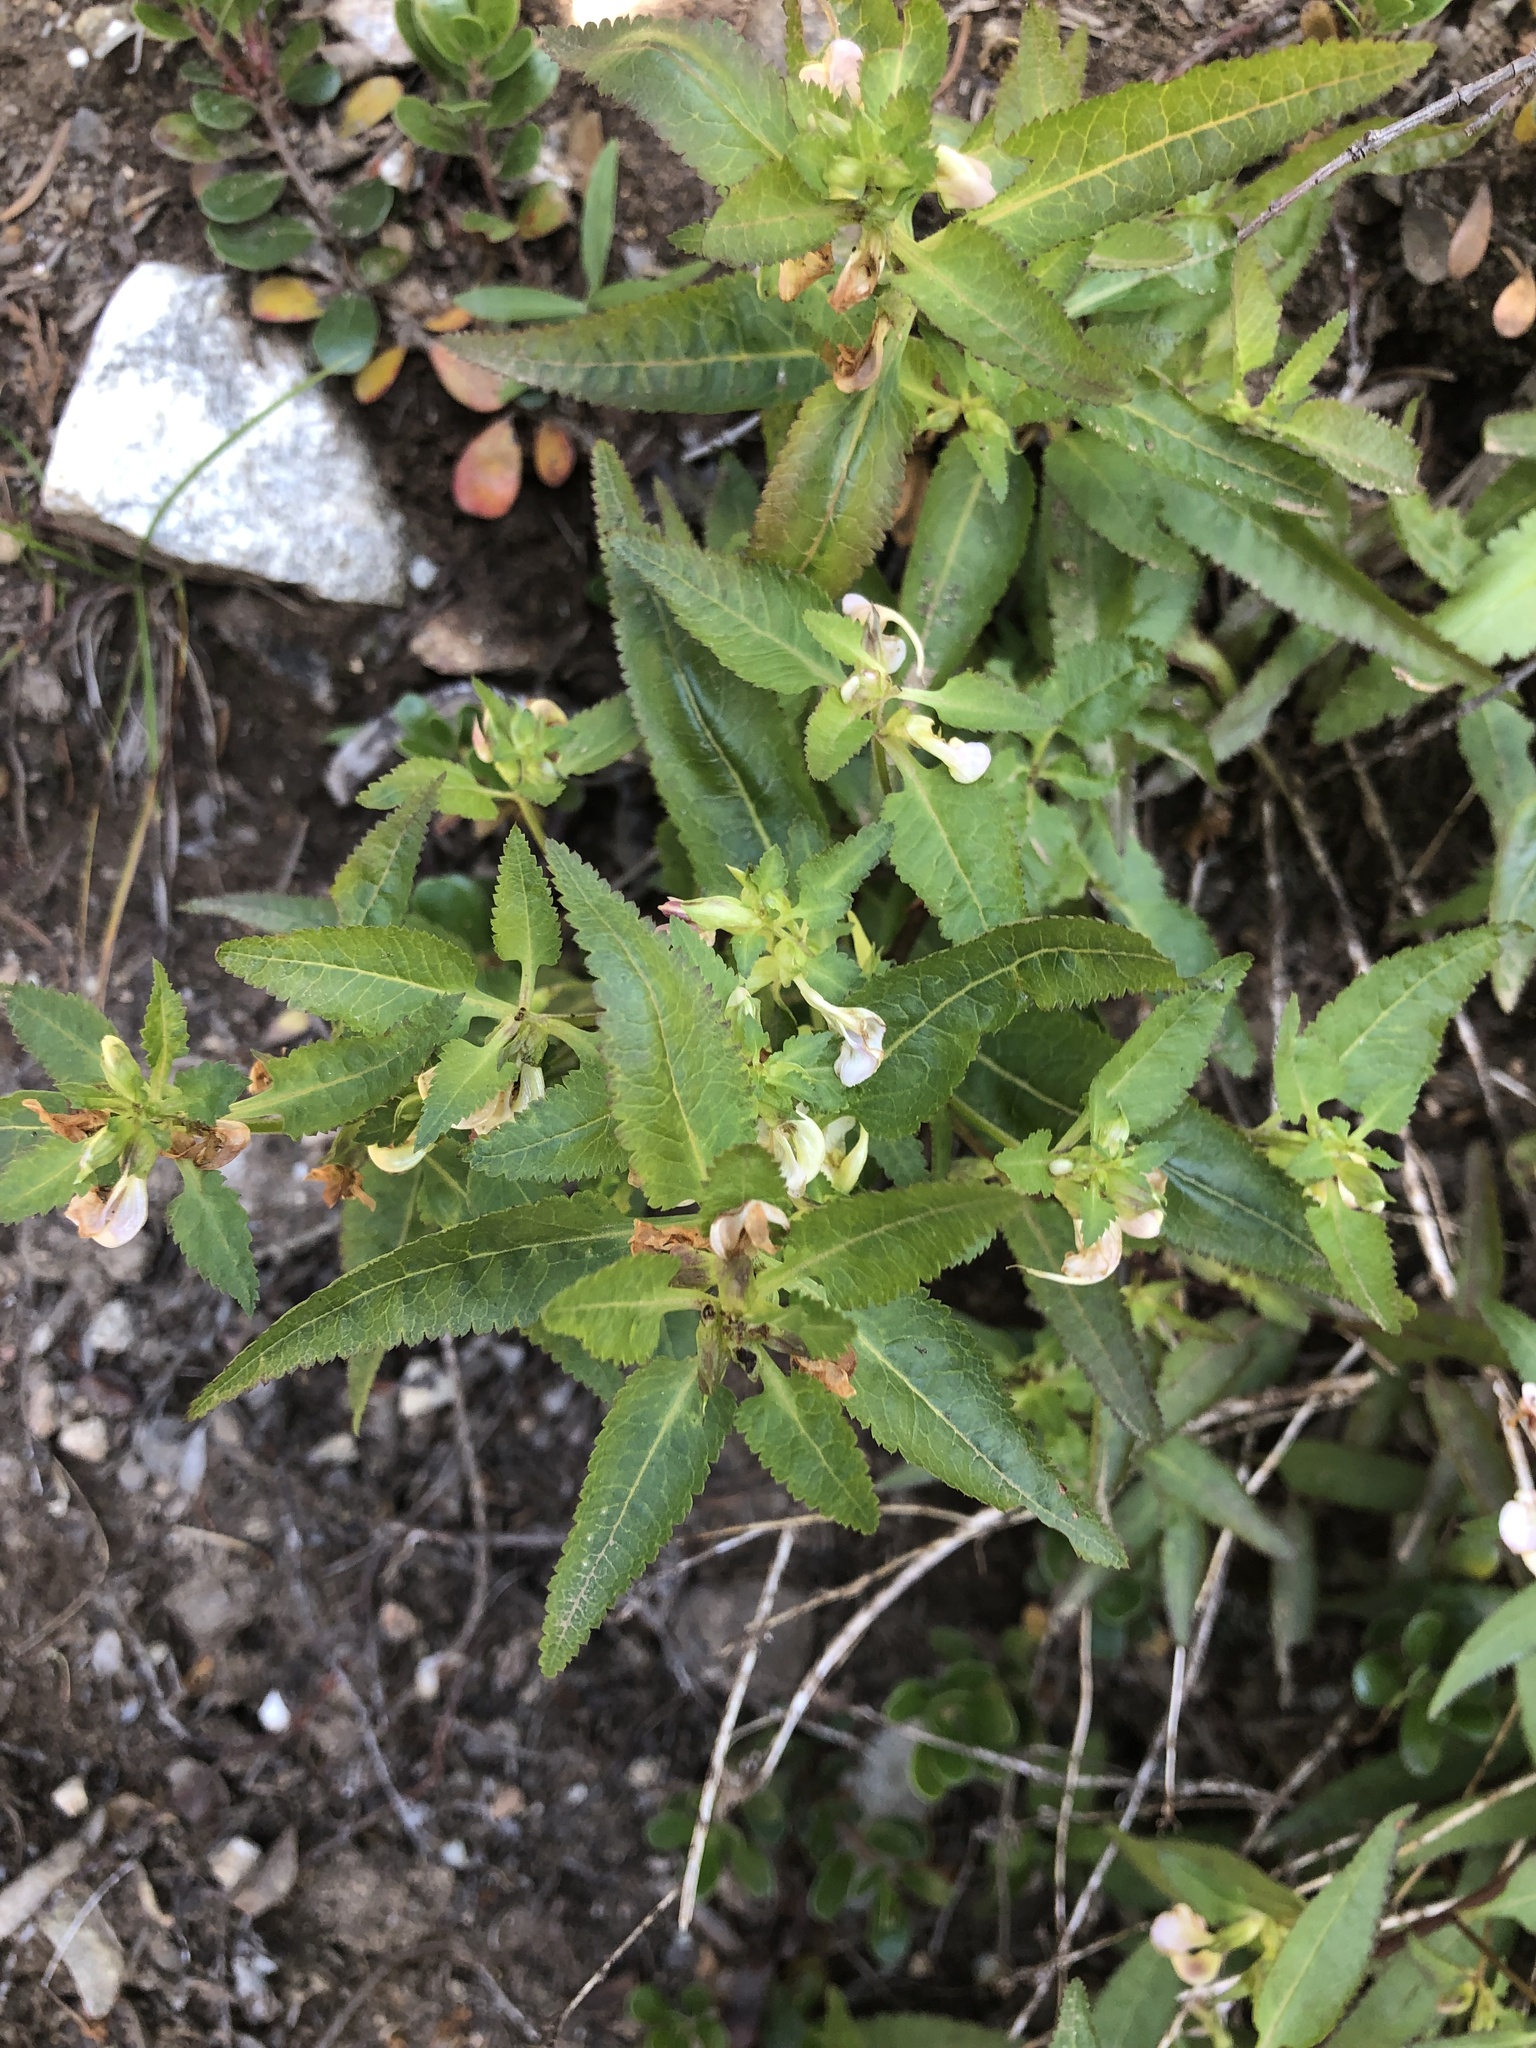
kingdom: Plantae
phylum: Tracheophyta
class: Magnoliopsida
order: Lamiales
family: Orobanchaceae
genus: Pedicularis
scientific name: Pedicularis racemosa
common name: Leafy lousewort
